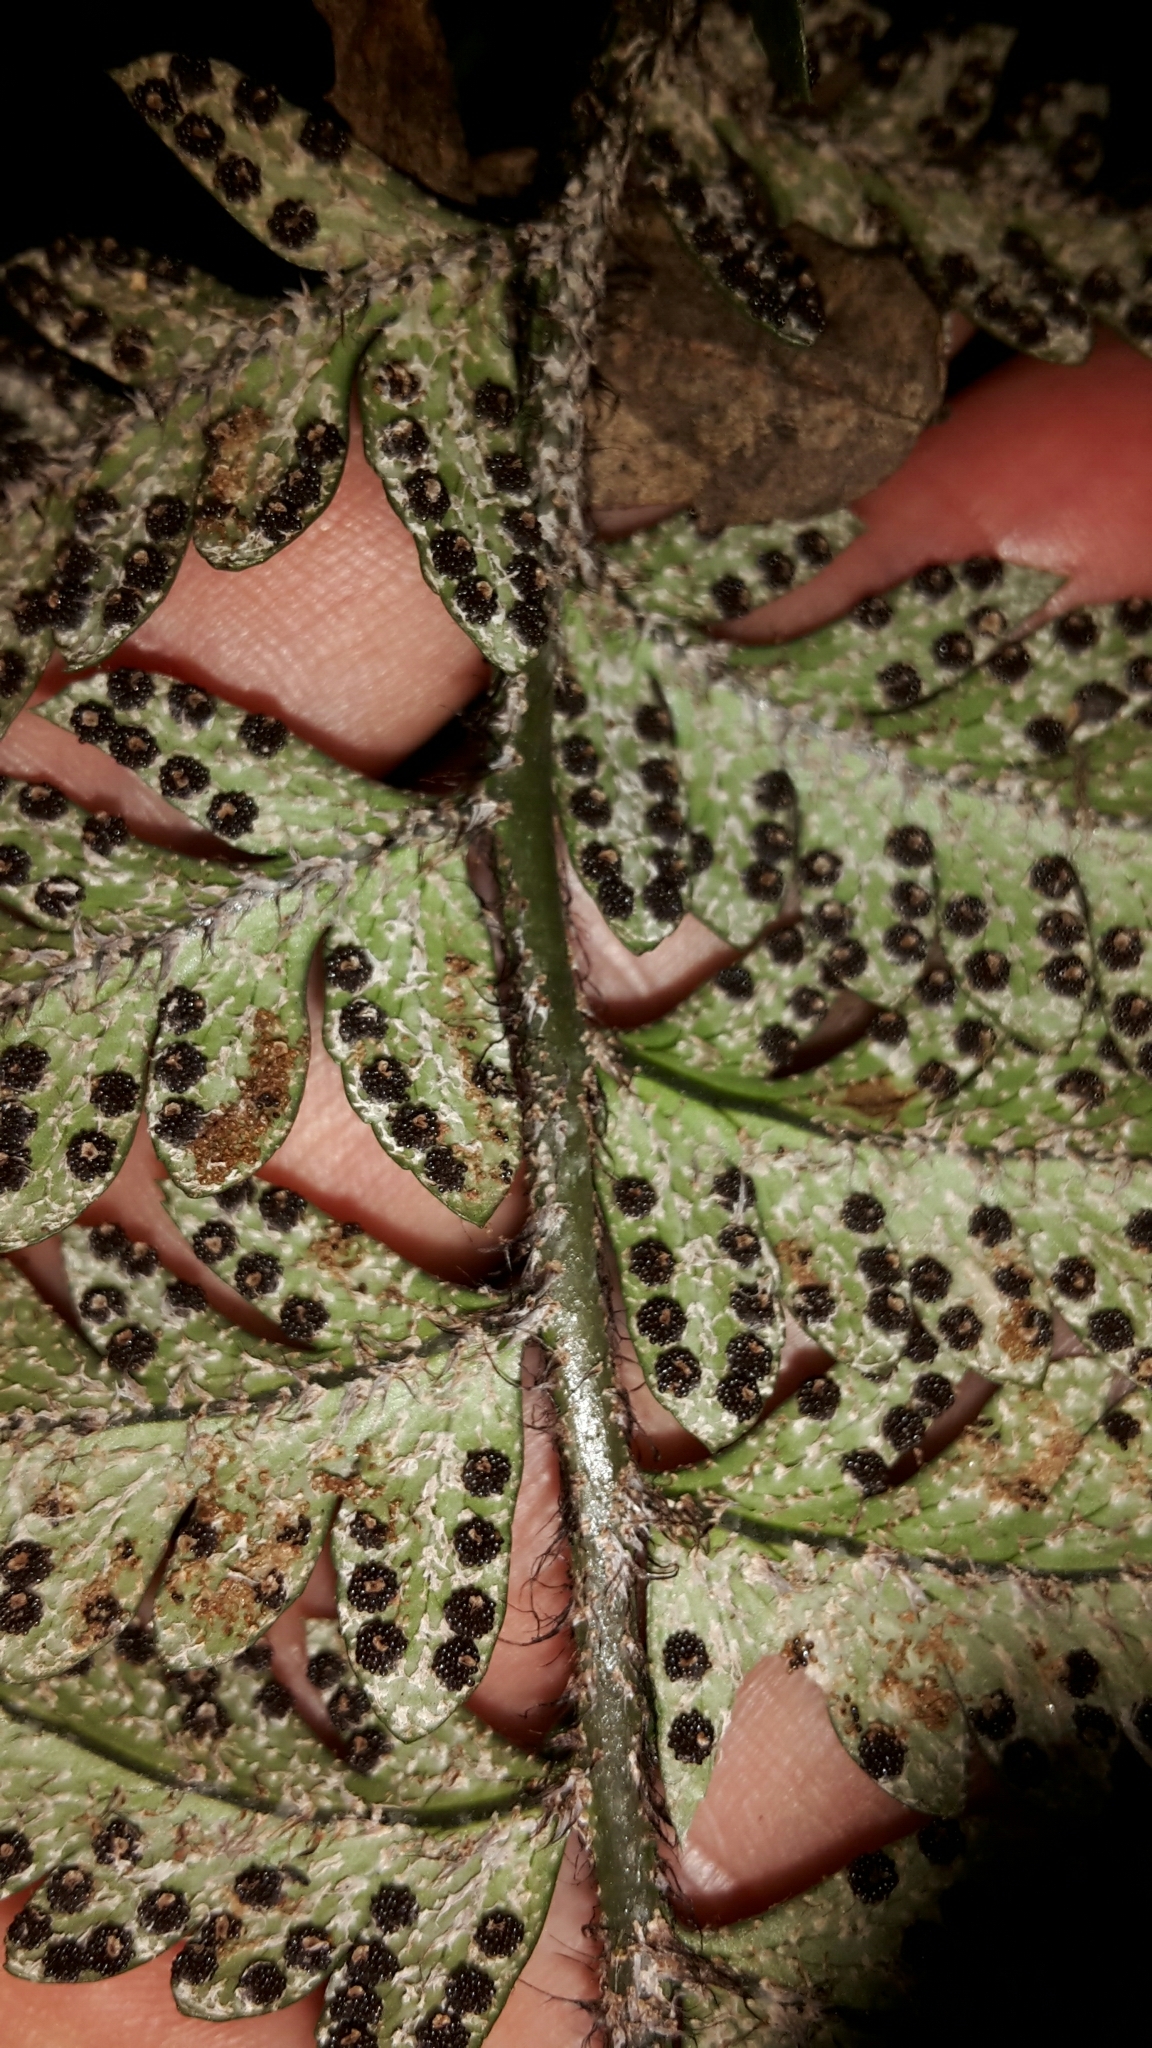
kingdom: Plantae
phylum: Tracheophyta
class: Polypodiopsida
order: Polypodiales
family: Dryopteridaceae
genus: Polystichum
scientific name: Polystichum wawranum
